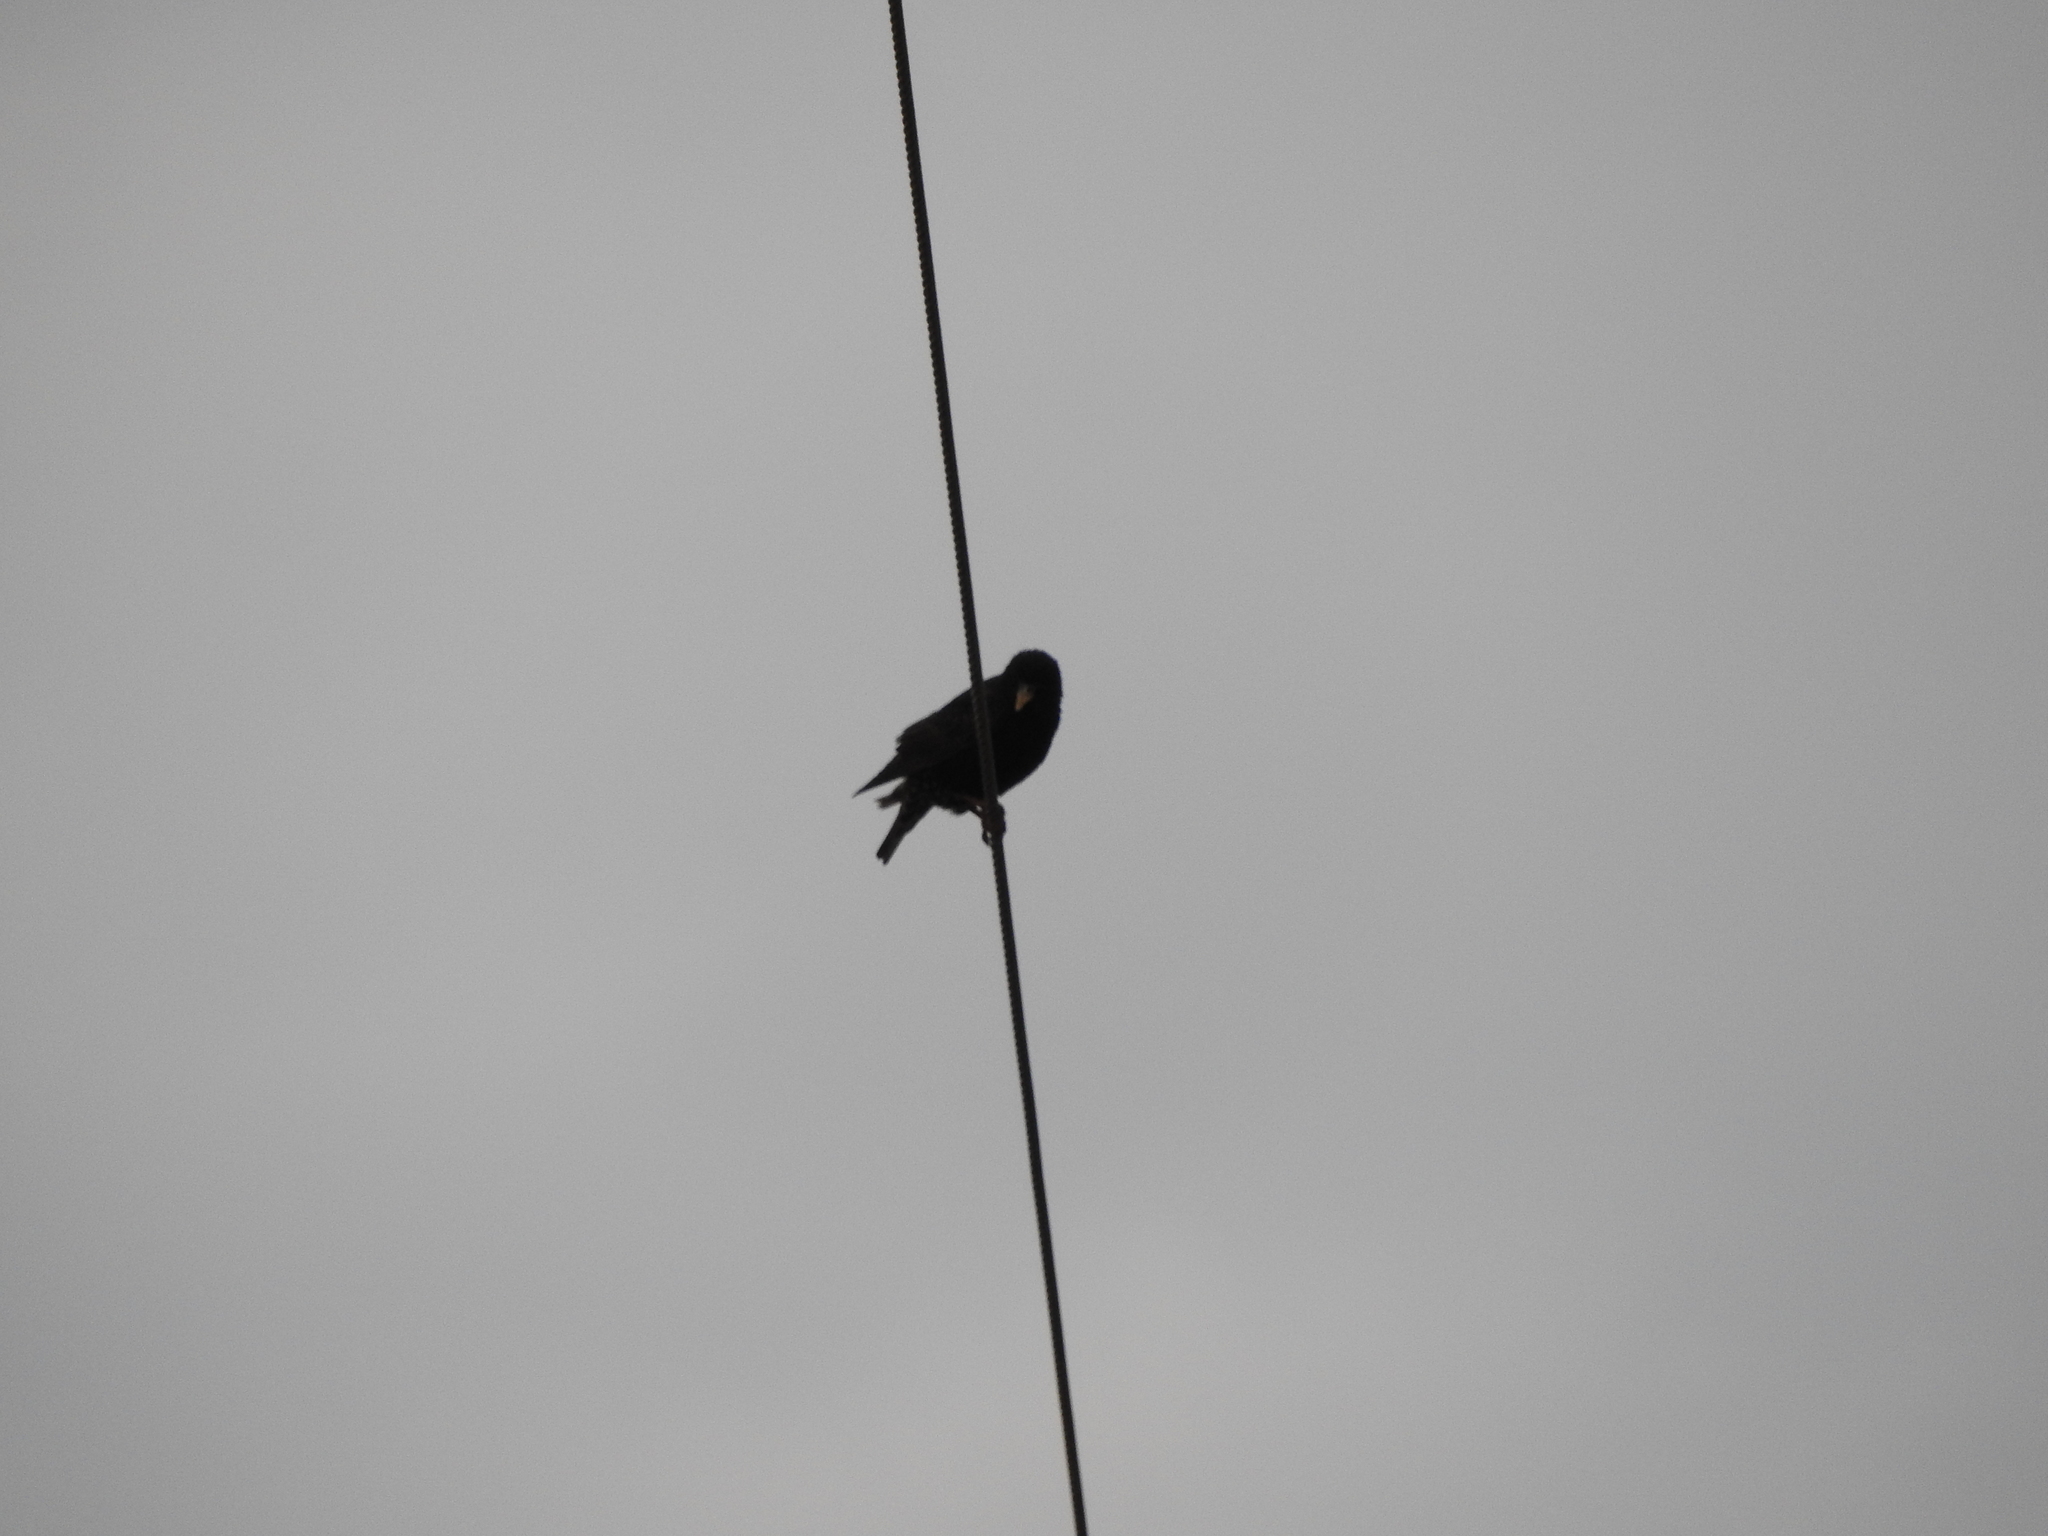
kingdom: Animalia
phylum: Chordata
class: Aves
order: Passeriformes
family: Sturnidae
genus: Sturnus
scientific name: Sturnus vulgaris
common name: Common starling
